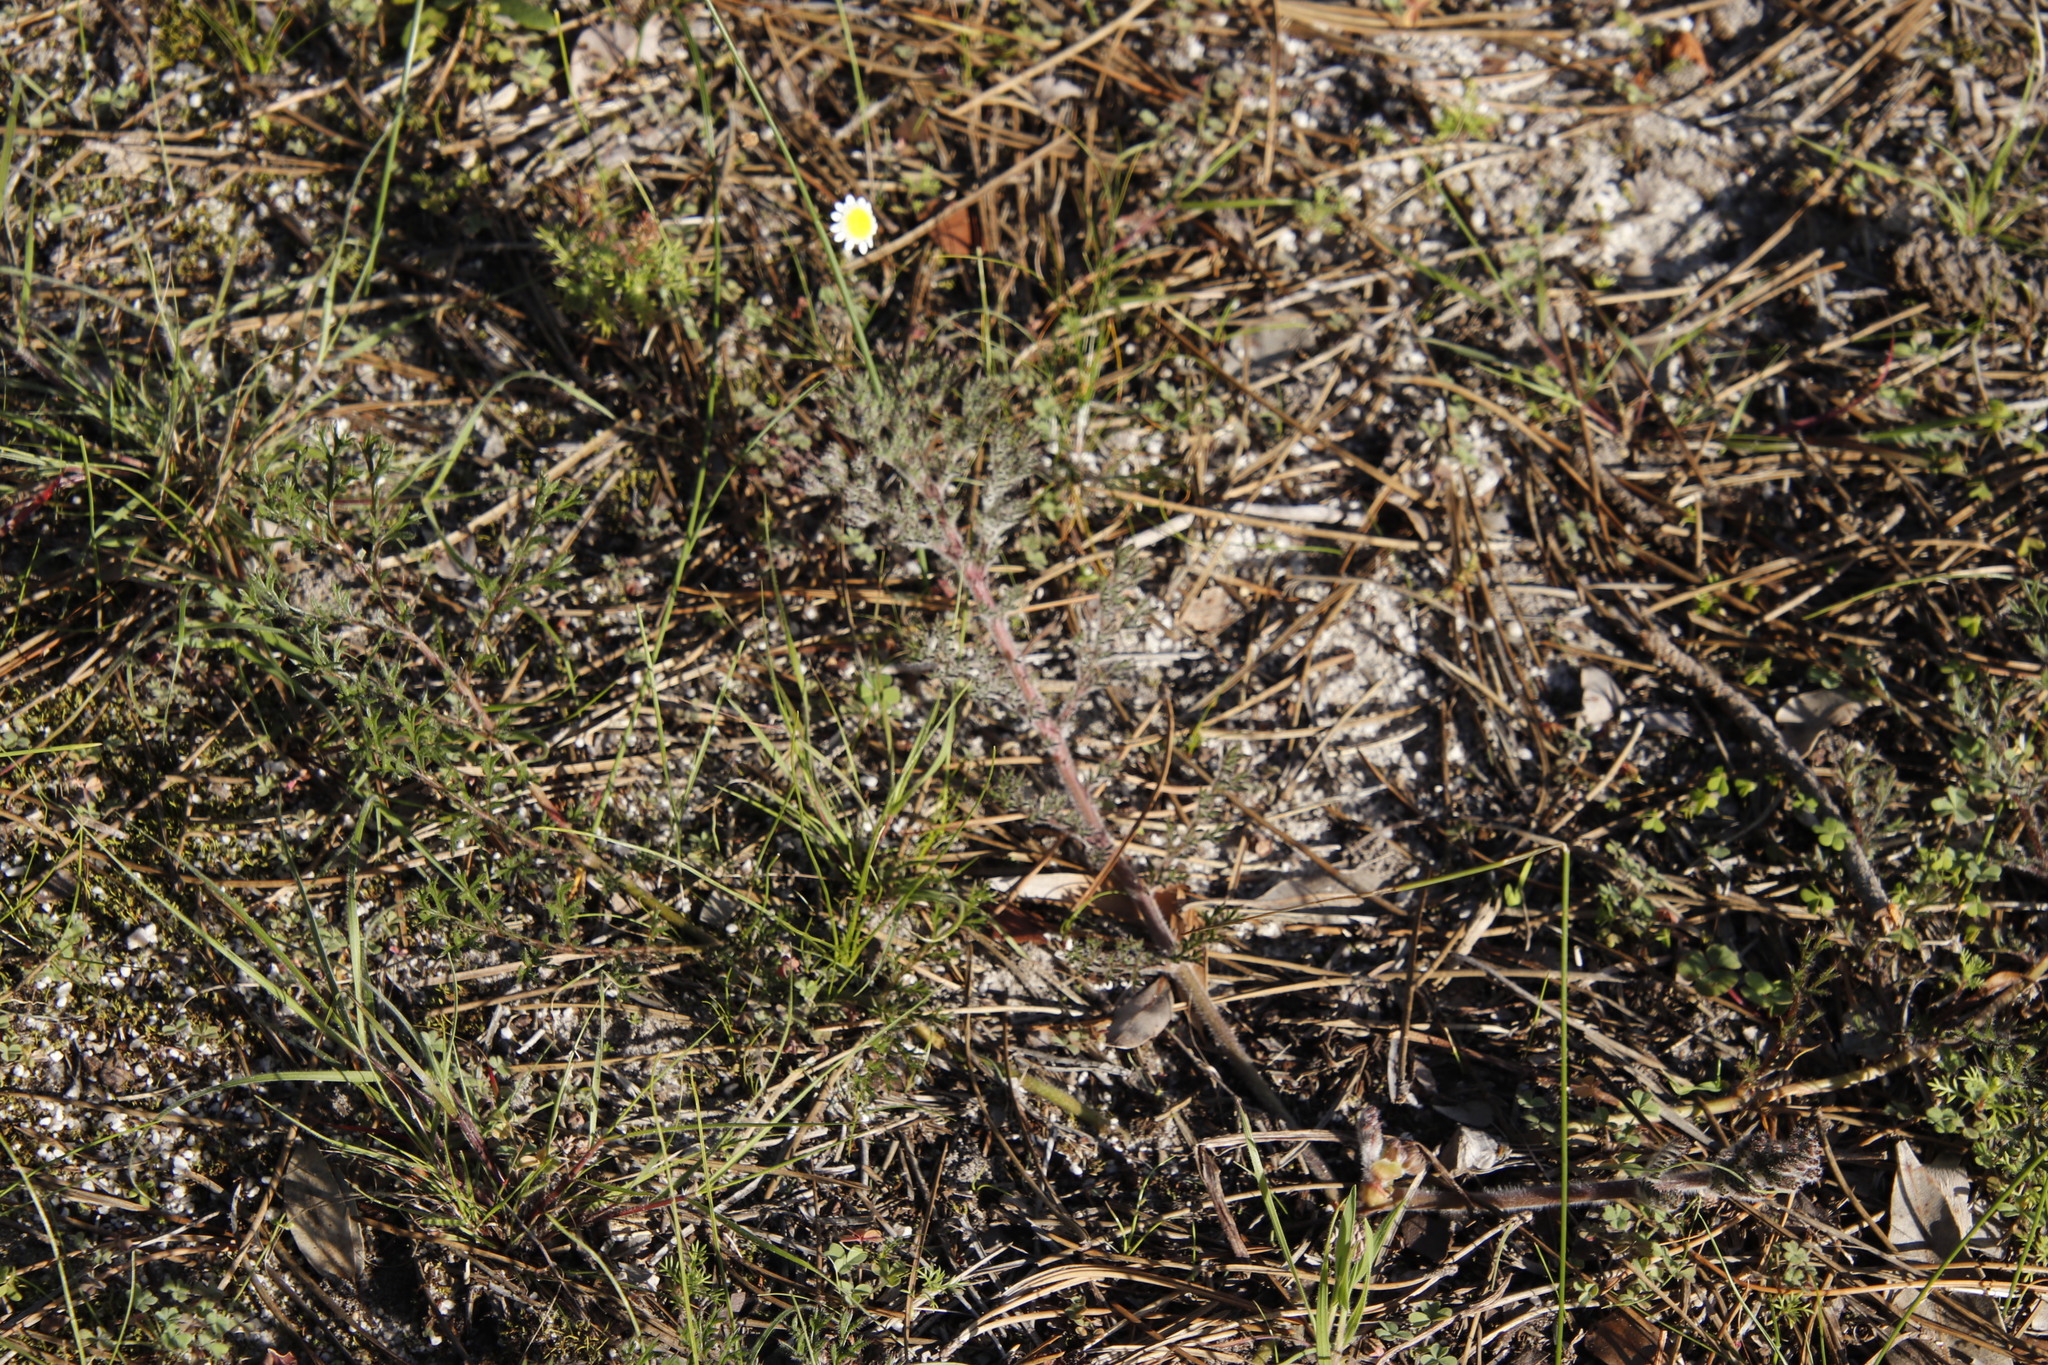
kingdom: Plantae
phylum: Tracheophyta
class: Magnoliopsida
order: Geraniales
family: Geraniaceae
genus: Pelargonium
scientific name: Pelargonium triste
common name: Night-scent pelargonium
